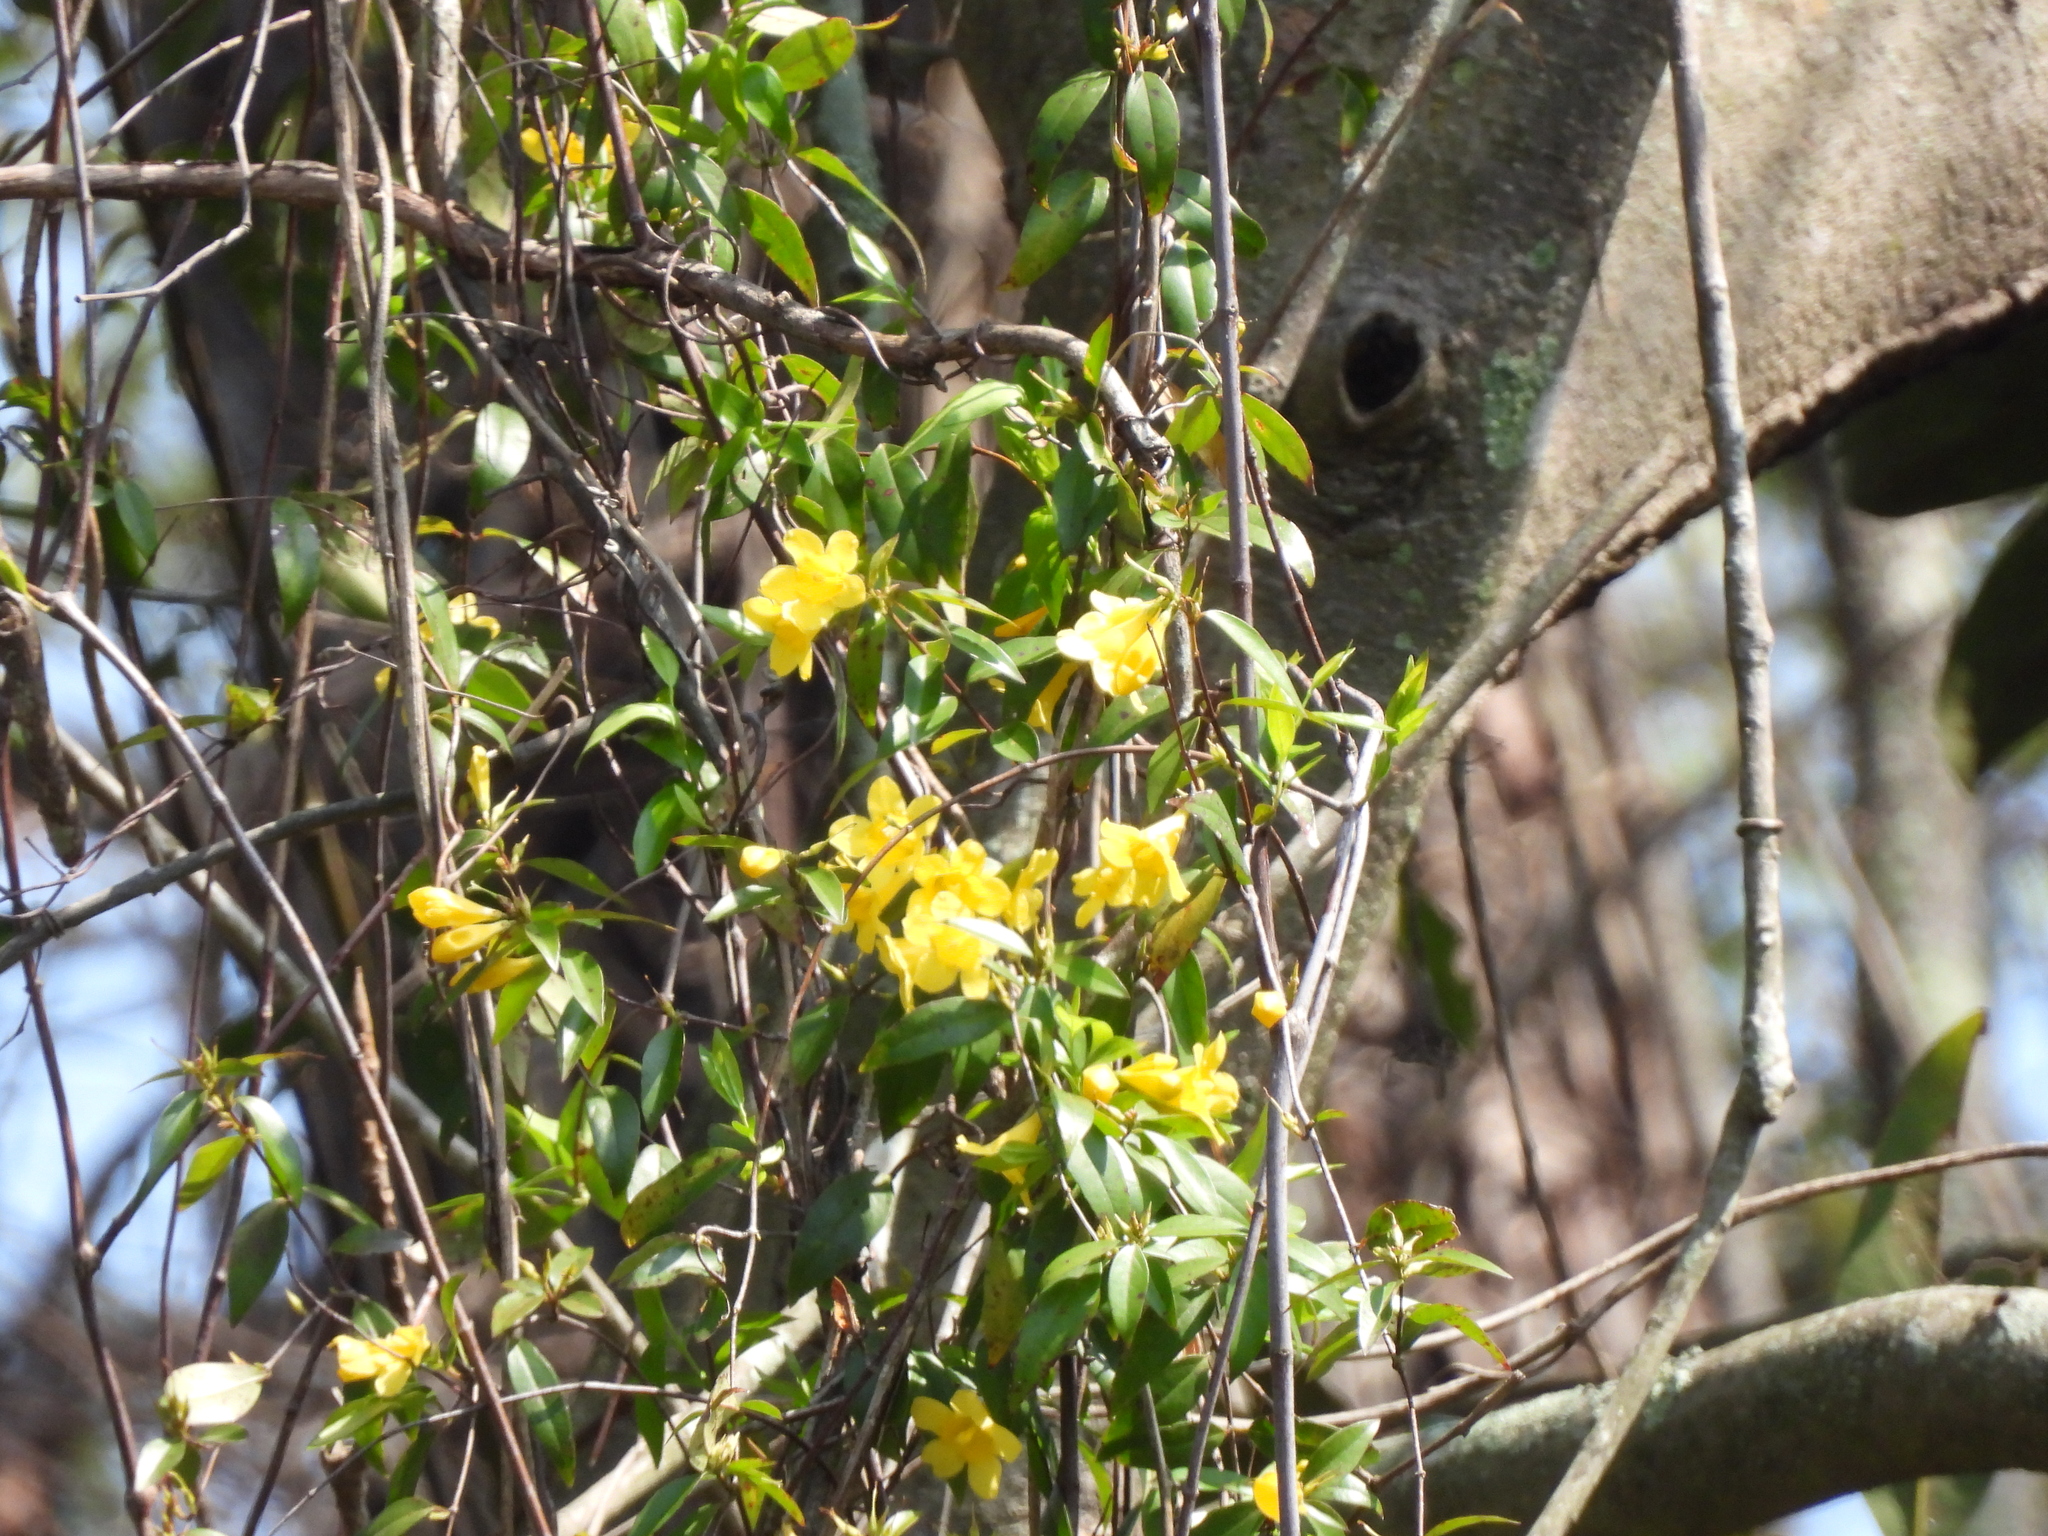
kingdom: Plantae
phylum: Tracheophyta
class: Magnoliopsida
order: Gentianales
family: Gelsemiaceae
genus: Gelsemium
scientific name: Gelsemium sempervirens
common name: Carolina-jasmine
